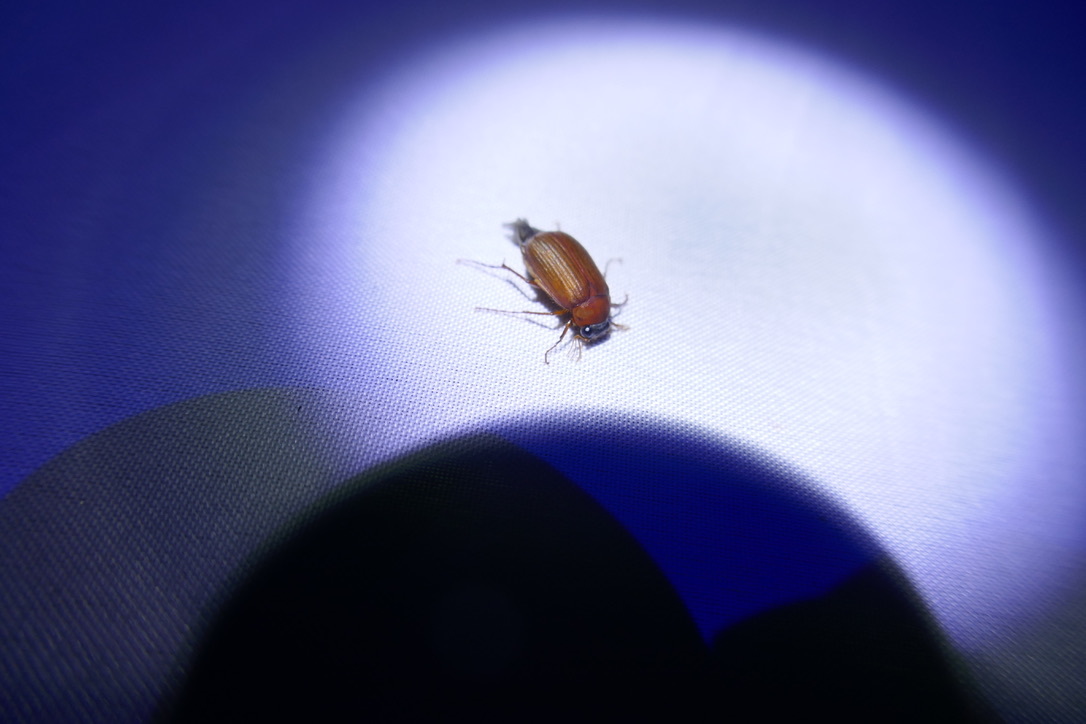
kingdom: Animalia
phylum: Arthropoda
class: Insecta
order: Coleoptera
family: Scarabaeidae
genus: Serica
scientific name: Serica brunnea
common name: Brown chafer
